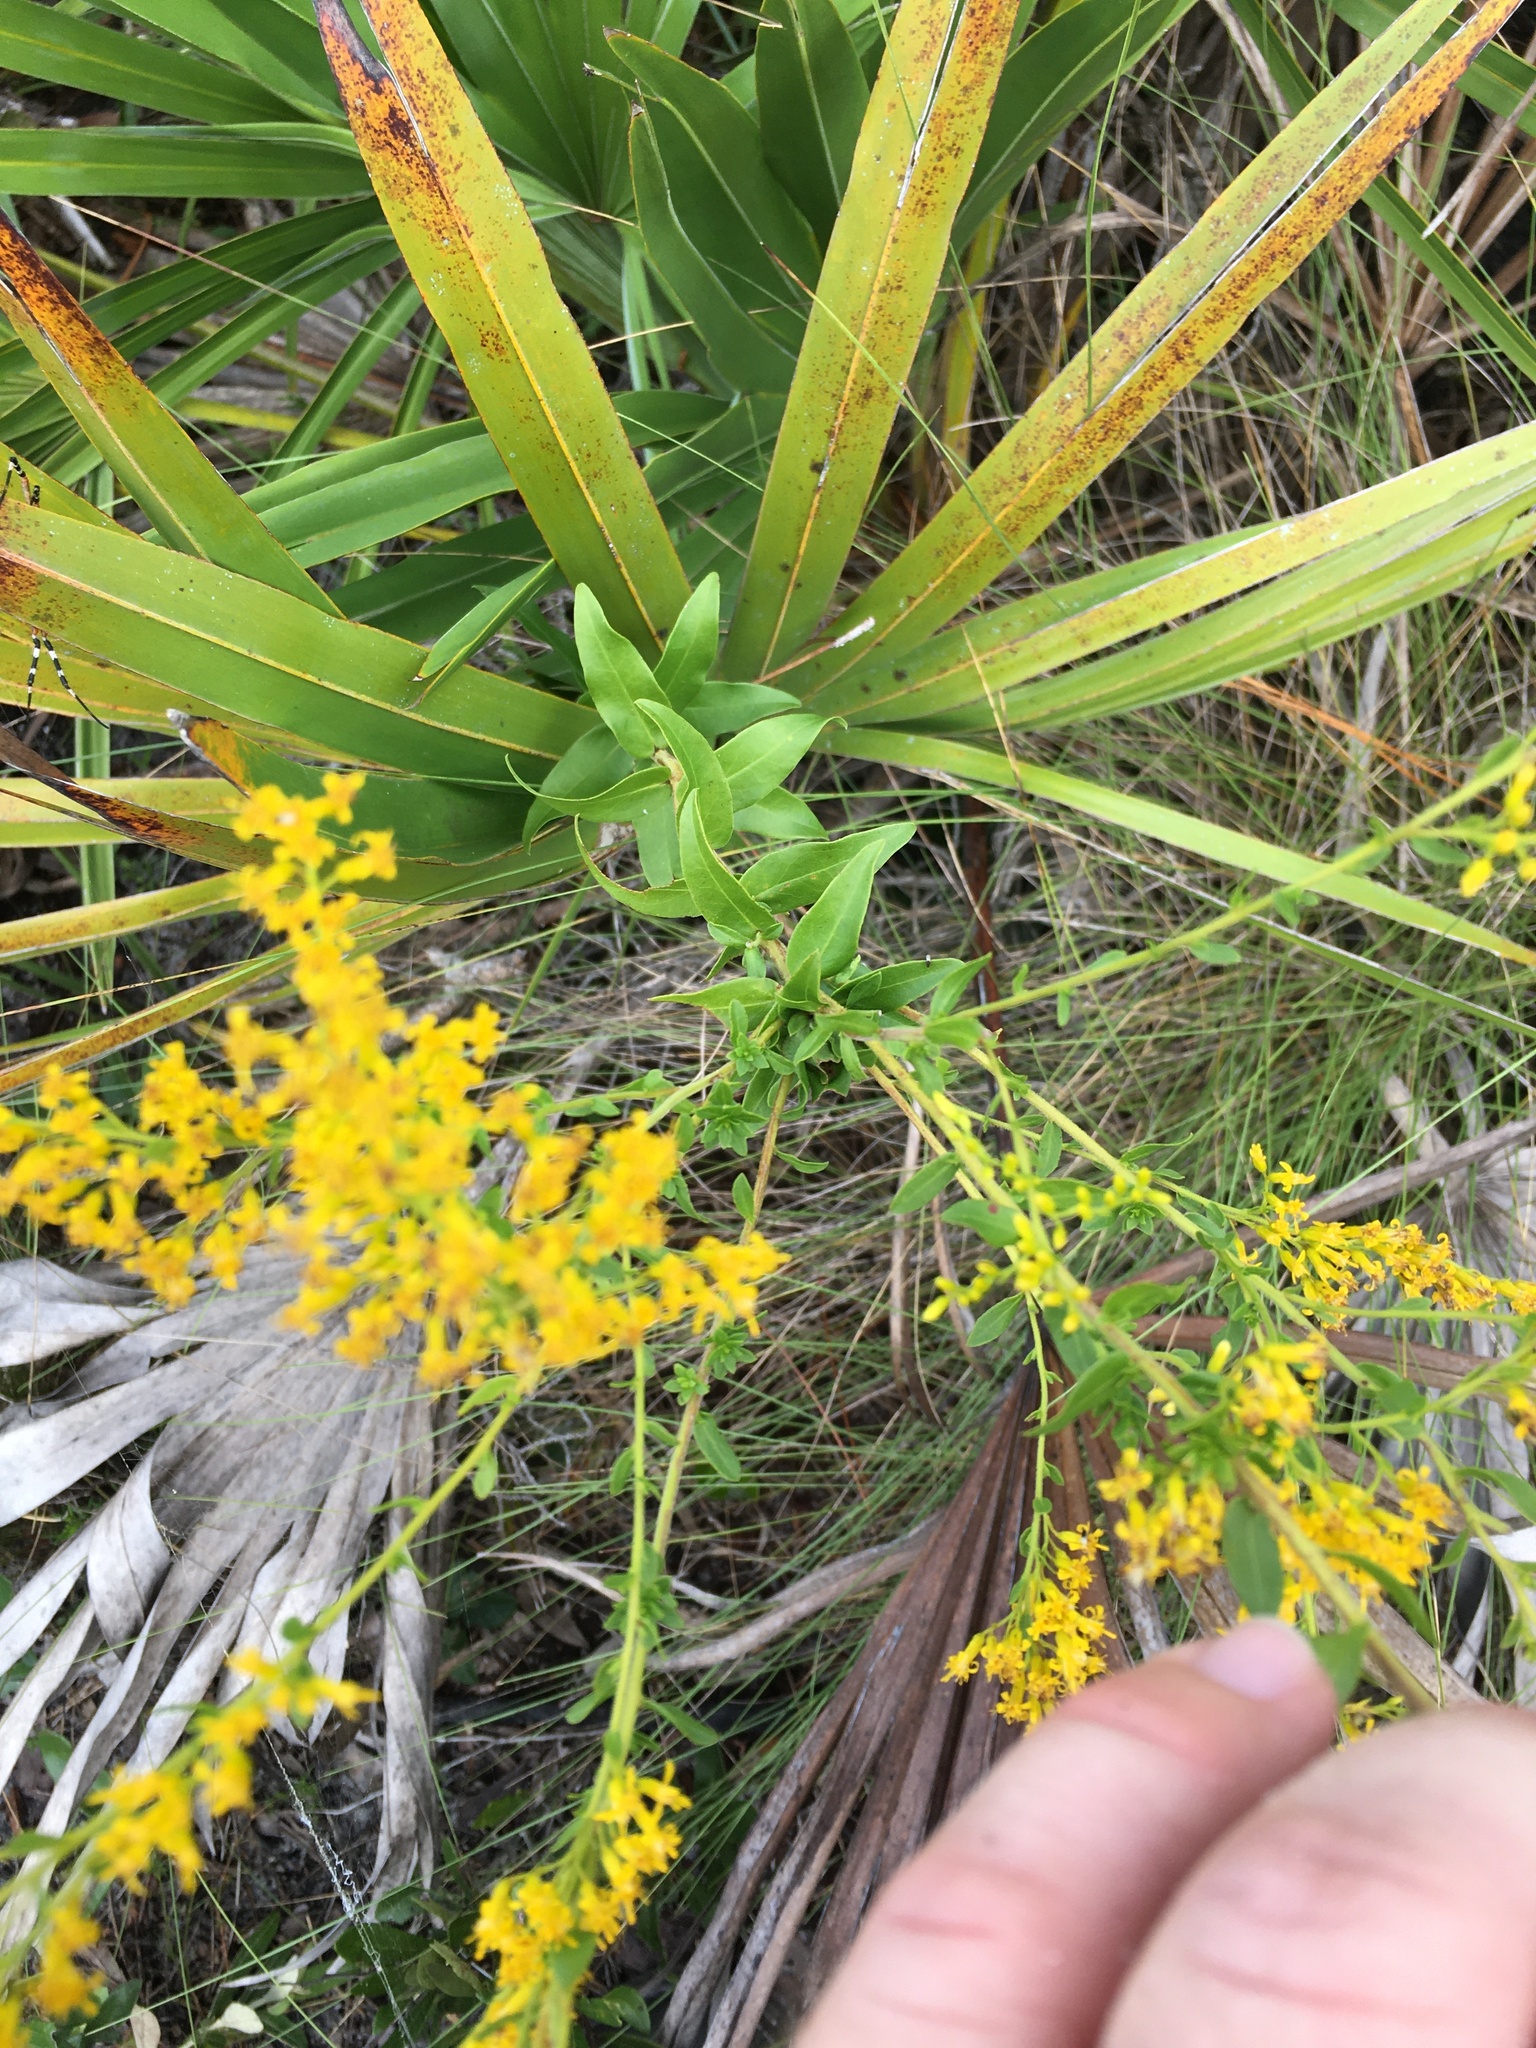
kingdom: Plantae
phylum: Tracheophyta
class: Magnoliopsida
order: Asterales
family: Asteraceae
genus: Solidago
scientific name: Solidago chapmanii
